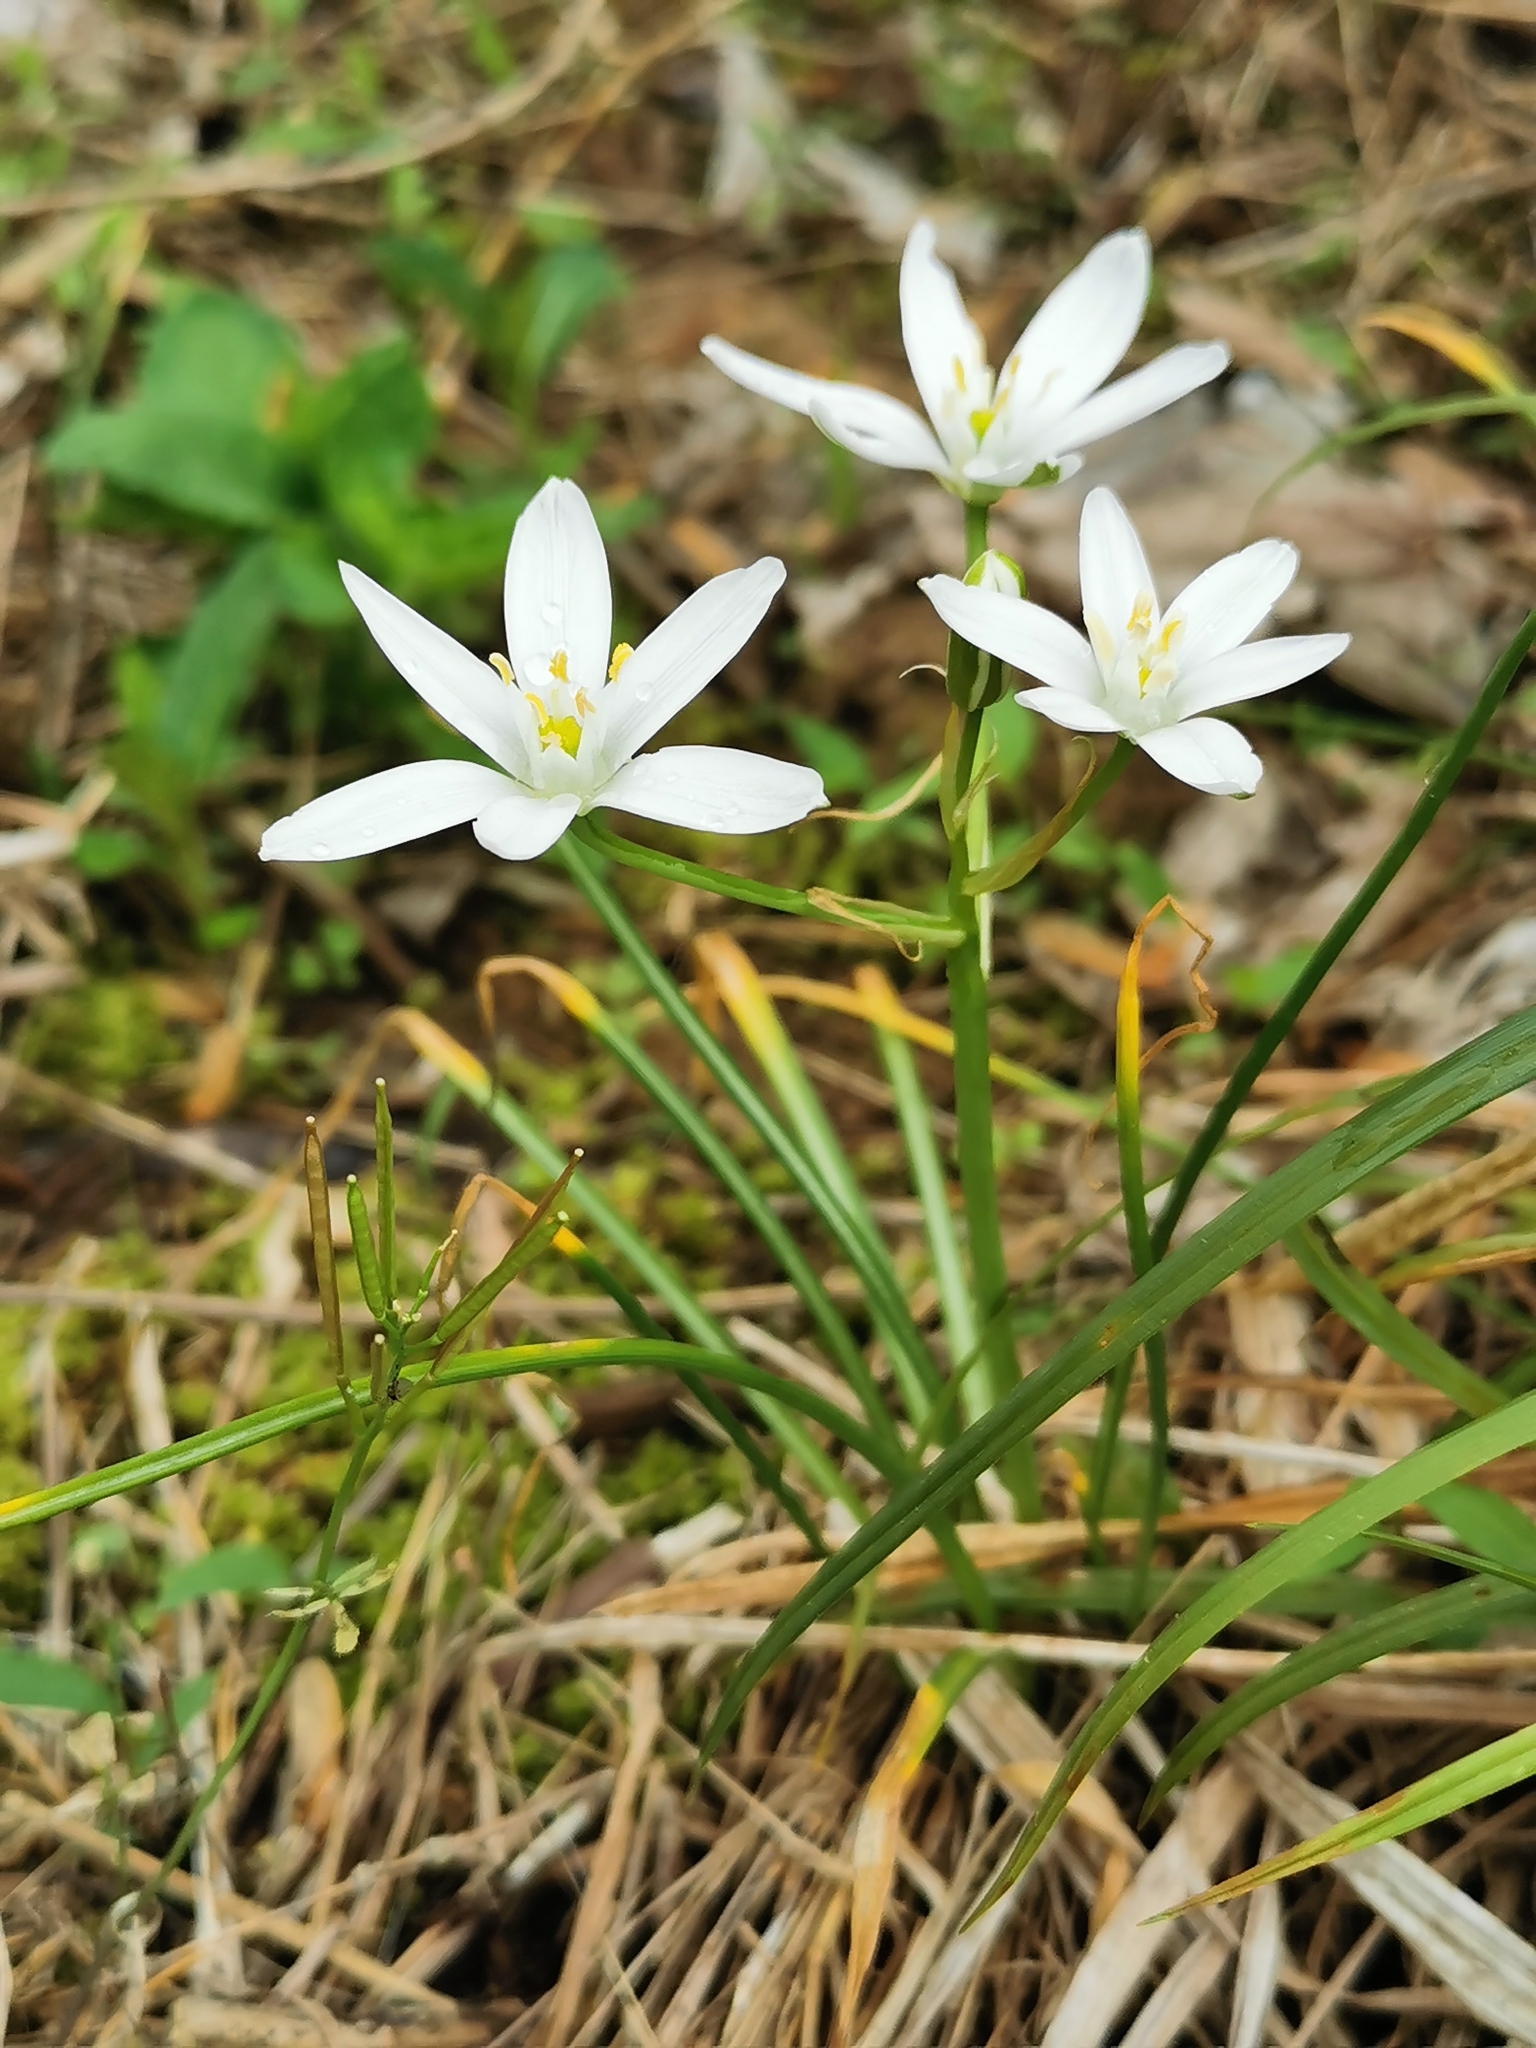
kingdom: Plantae
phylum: Tracheophyta
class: Liliopsida
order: Asparagales
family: Asparagaceae
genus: Ornithogalum
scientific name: Ornithogalum umbellatum
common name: Garden star-of-bethlehem
